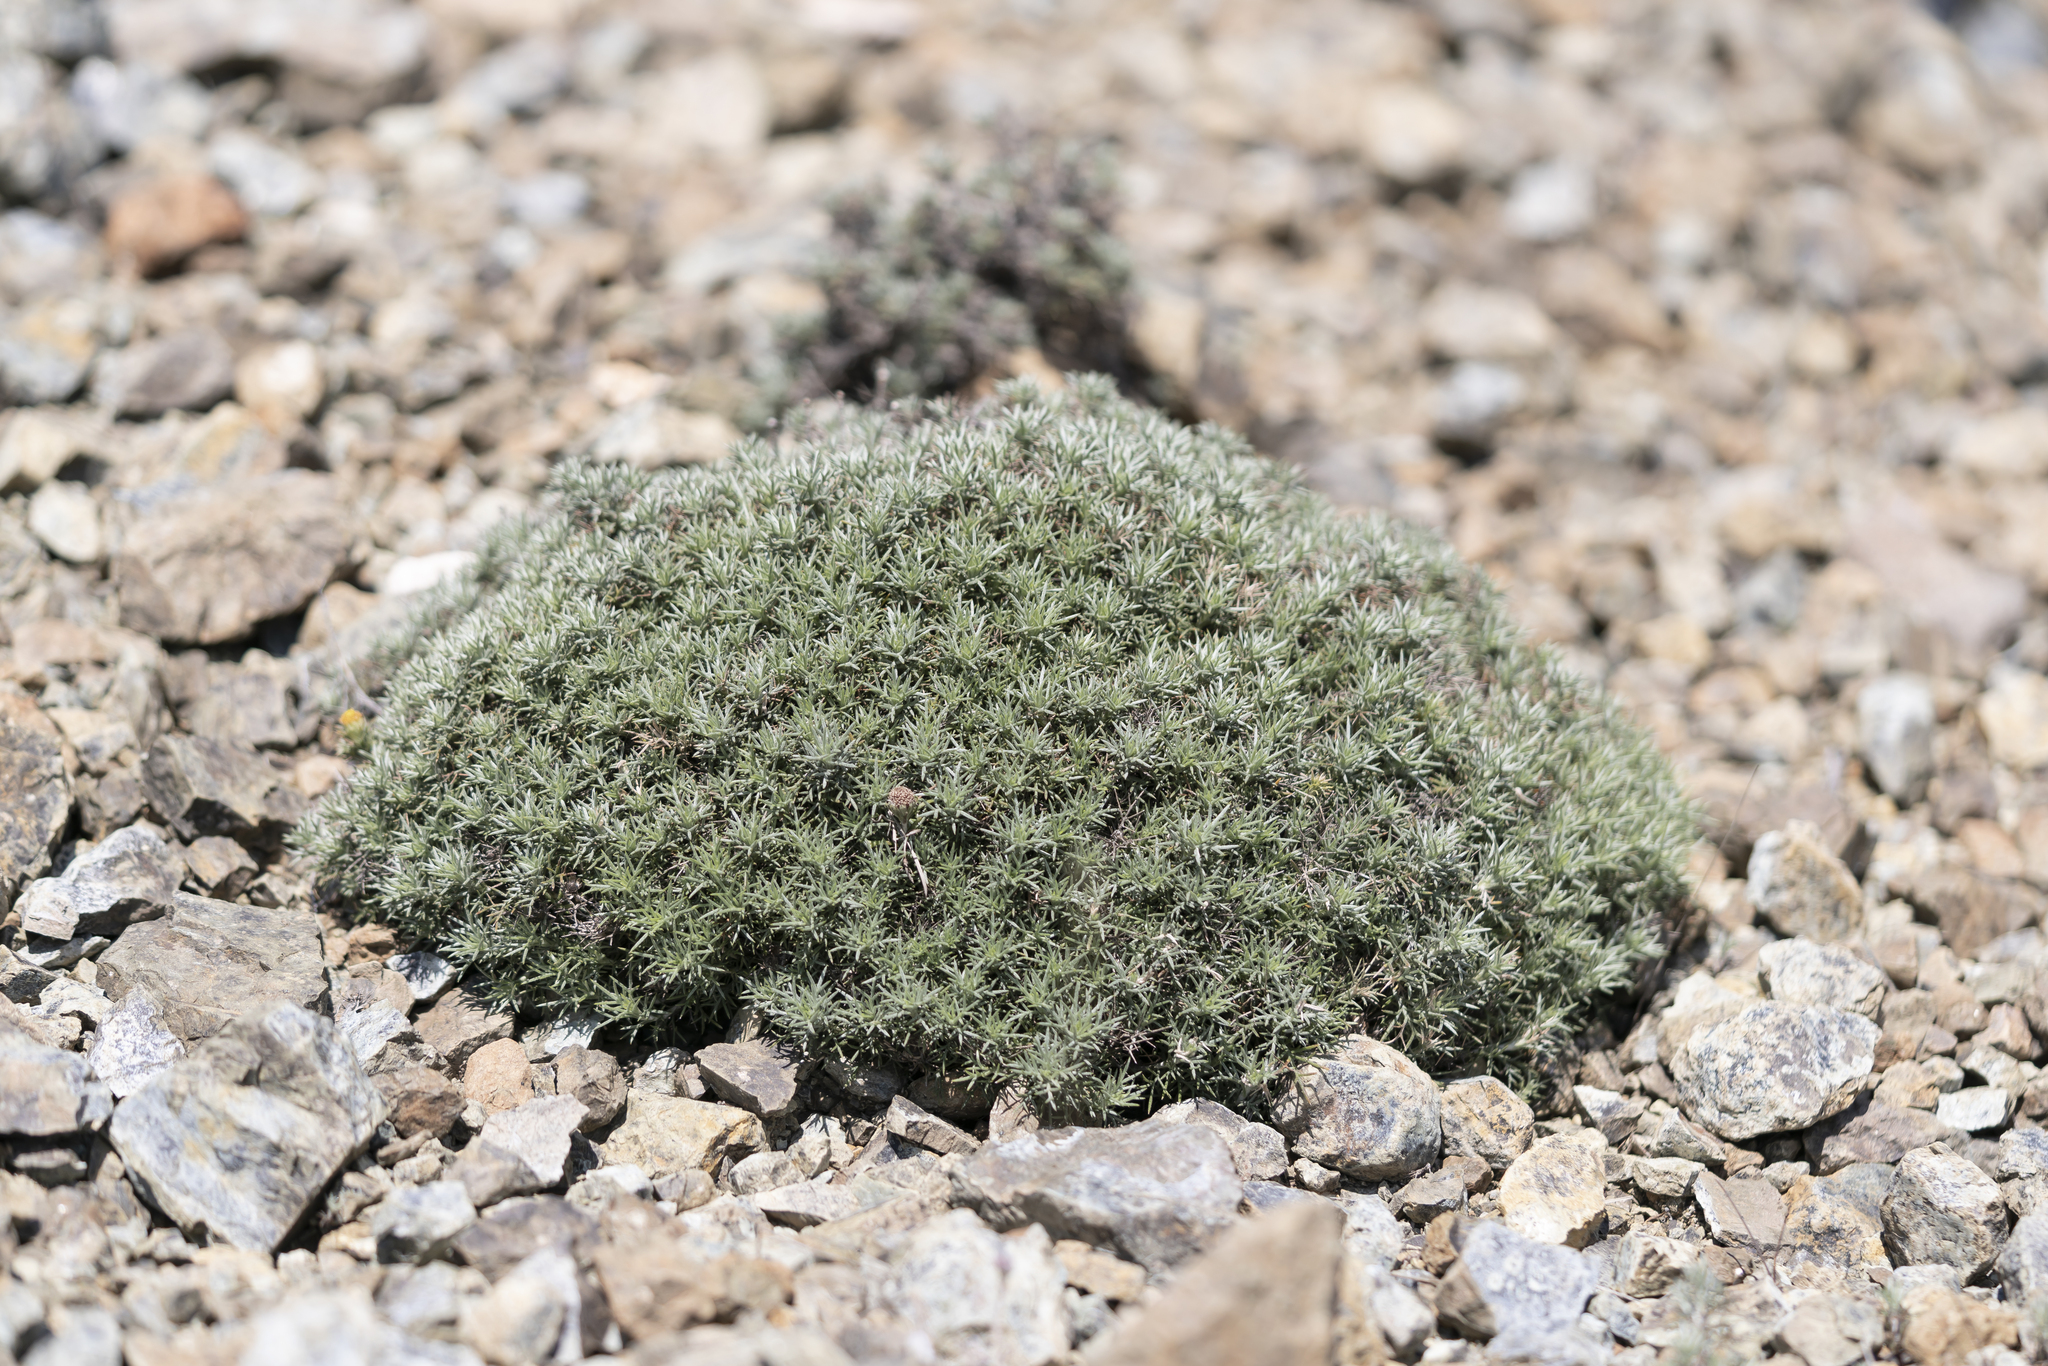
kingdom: Plantae
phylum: Tracheophyta
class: Magnoliopsida
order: Asterales
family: Asteraceae
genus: Anthemis
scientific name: Anthemis rhodensis
